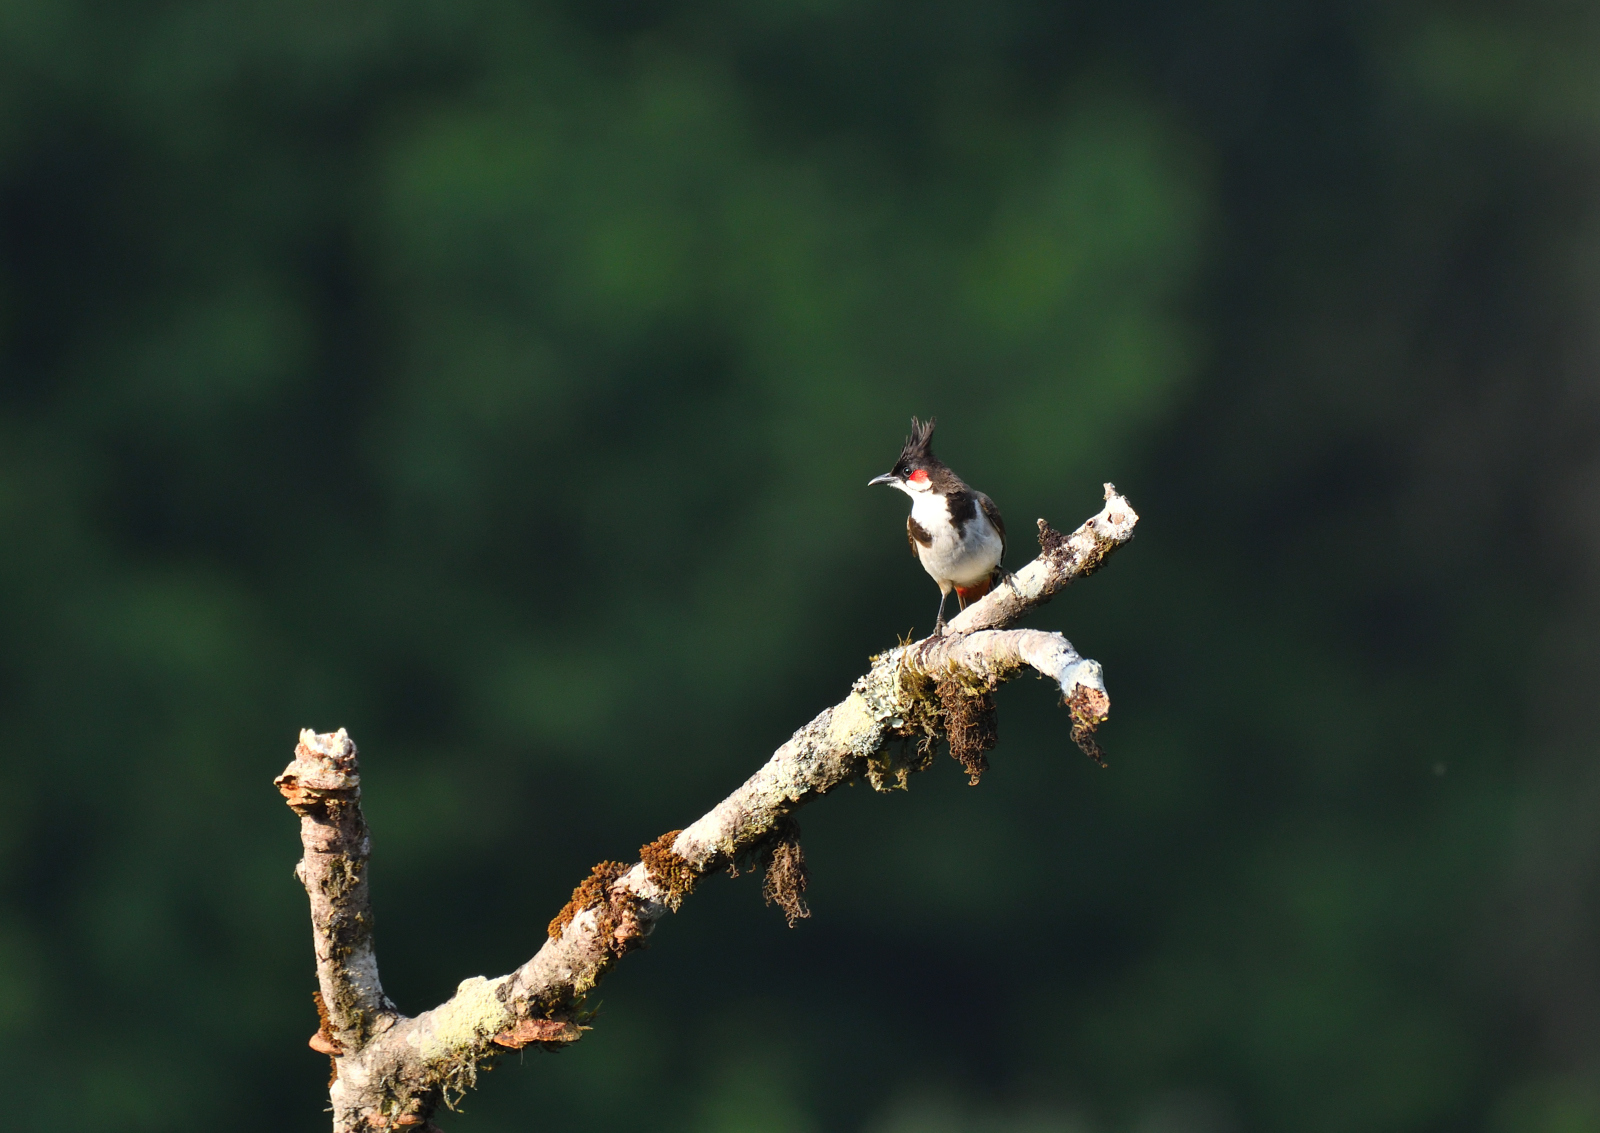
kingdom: Animalia
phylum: Chordata
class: Aves
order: Passeriformes
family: Pycnonotidae
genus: Pycnonotus
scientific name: Pycnonotus jocosus
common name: Red-whiskered bulbul
